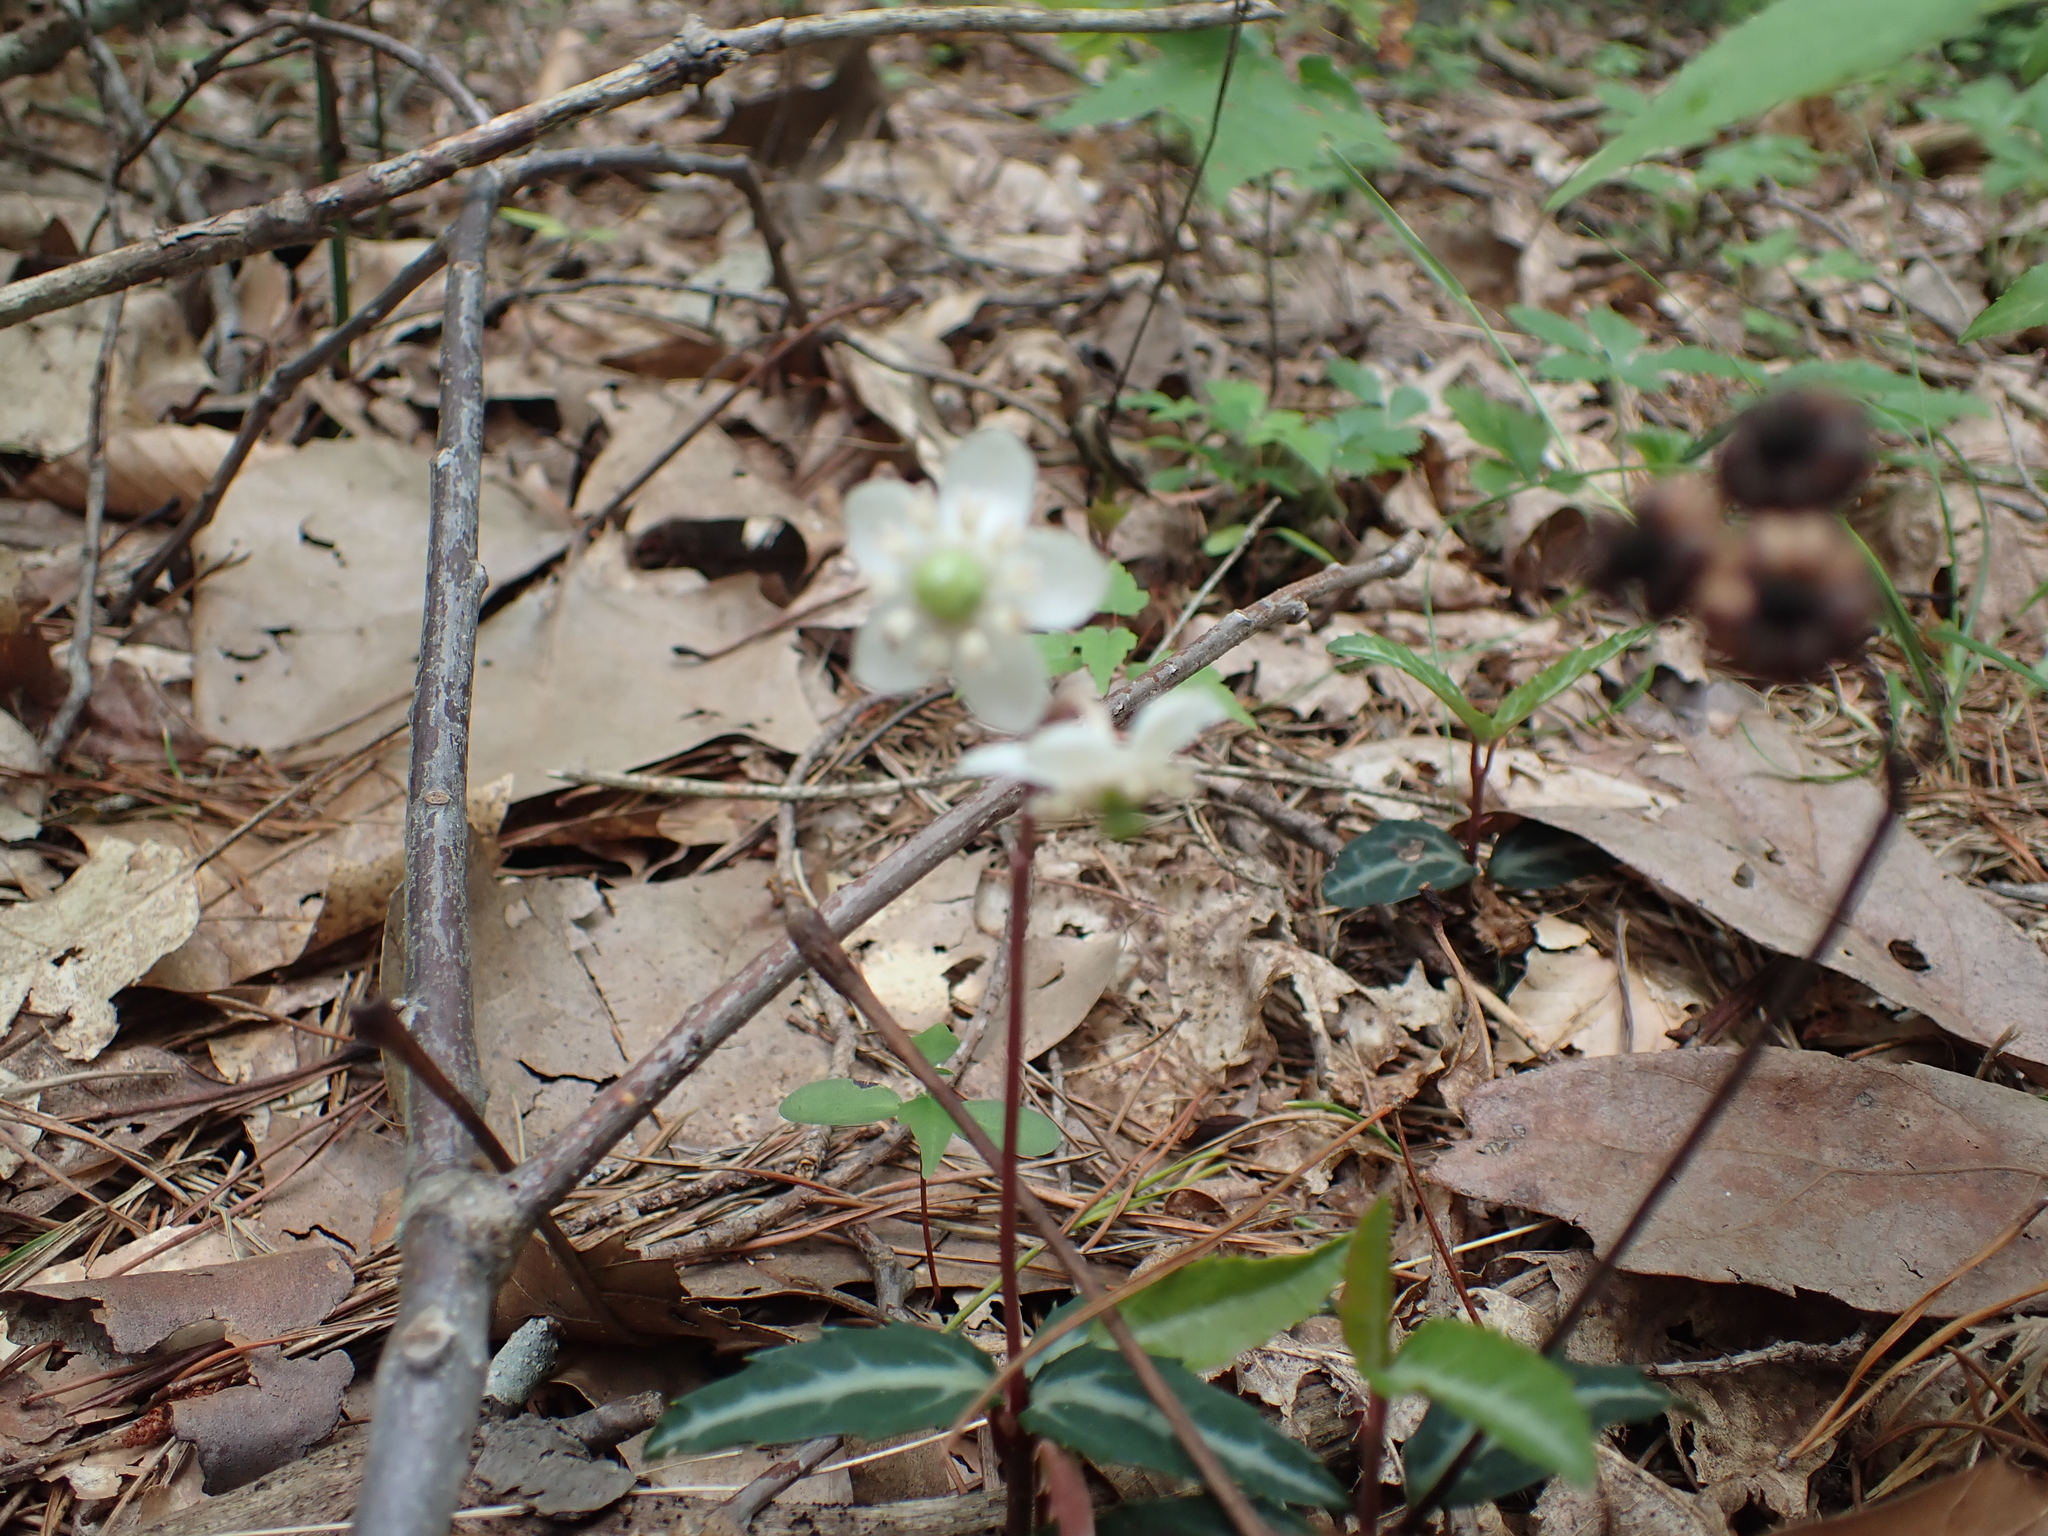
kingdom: Plantae
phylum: Tracheophyta
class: Magnoliopsida
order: Ericales
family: Ericaceae
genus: Chimaphila
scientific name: Chimaphila maculata
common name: Spotted pipsissewa
